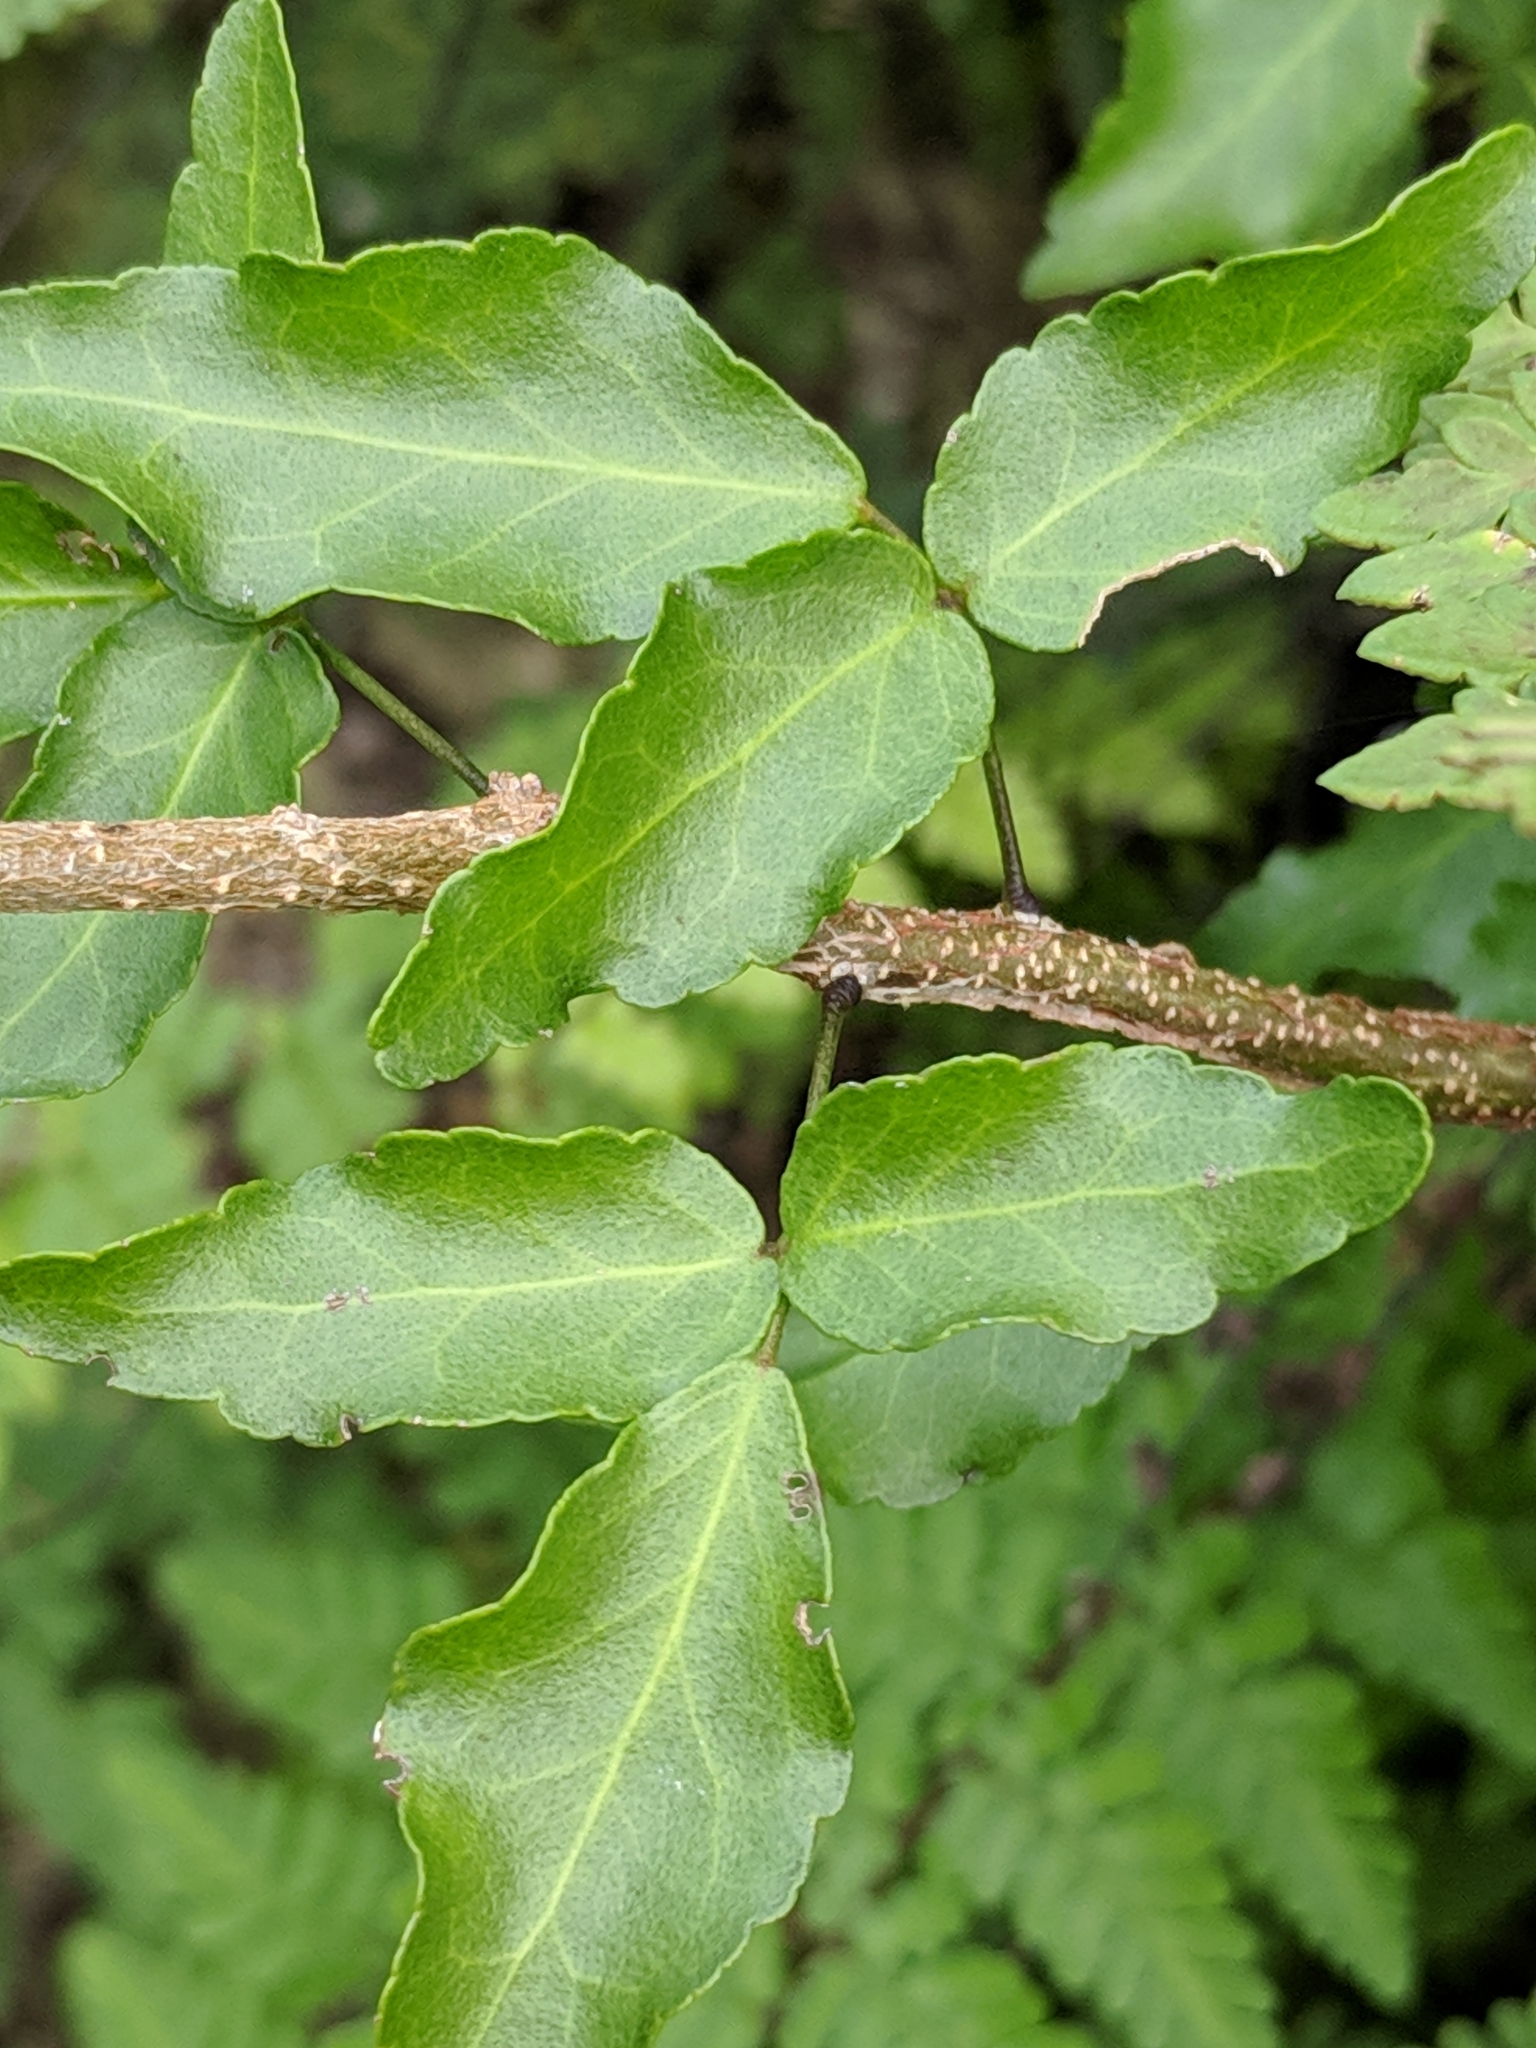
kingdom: Plantae
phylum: Tracheophyta
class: Magnoliopsida
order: Sapindales
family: Rutaceae
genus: Amyris
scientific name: Amyris texana
